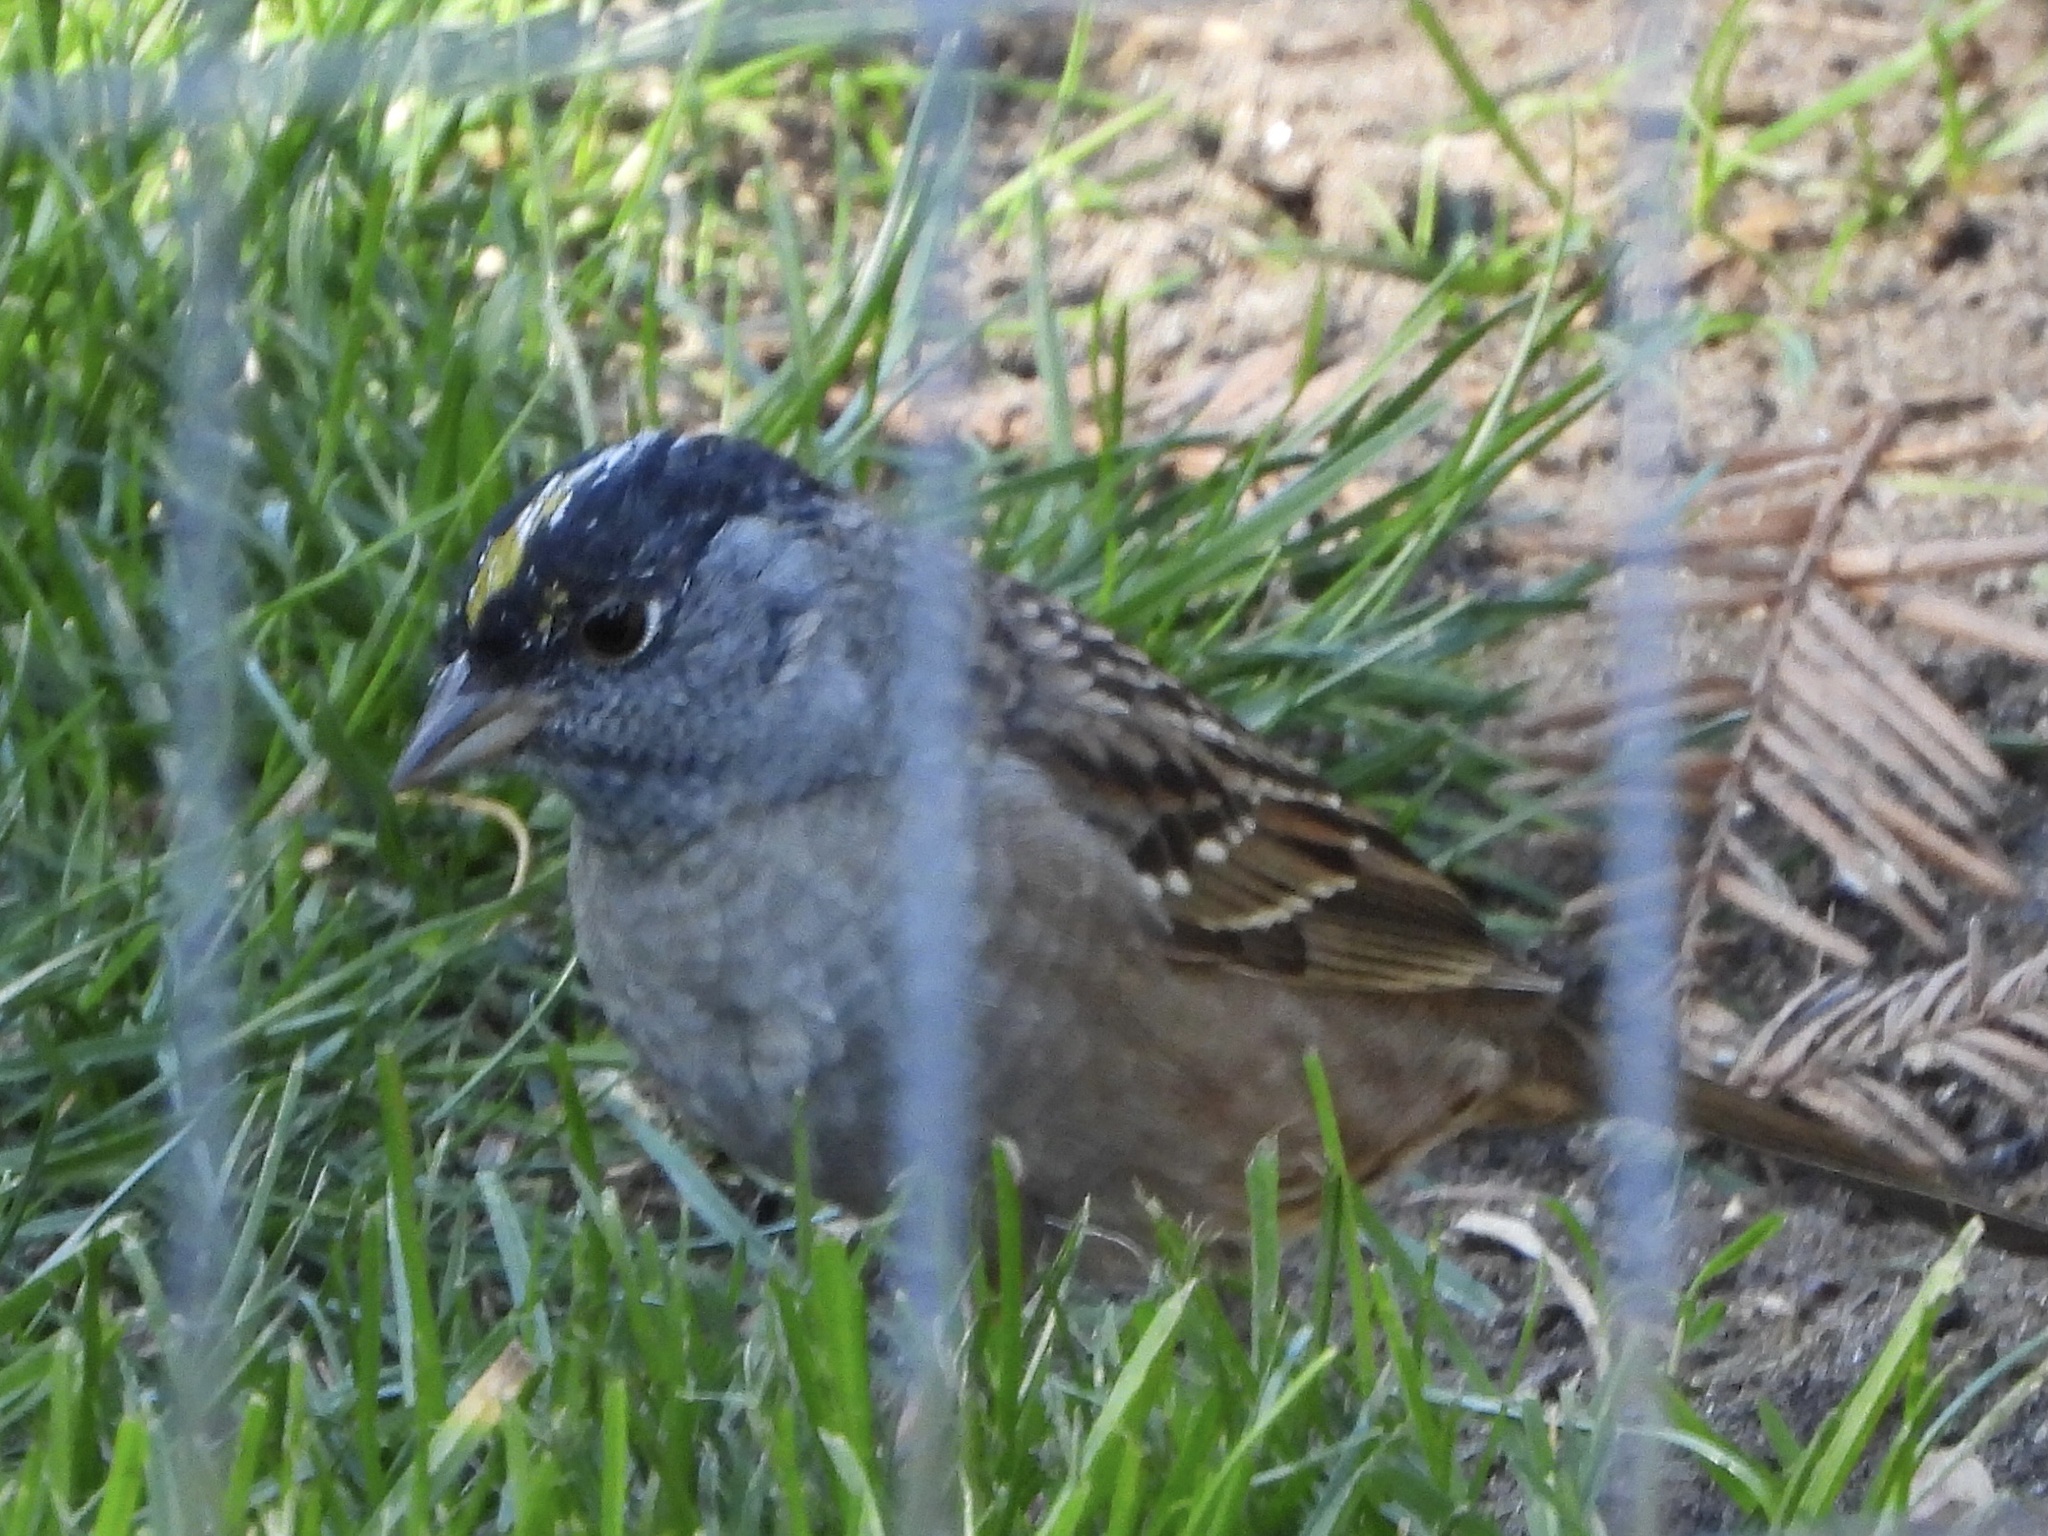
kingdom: Animalia
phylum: Chordata
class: Aves
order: Passeriformes
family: Passerellidae
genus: Zonotrichia
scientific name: Zonotrichia atricapilla
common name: Golden-crowned sparrow
